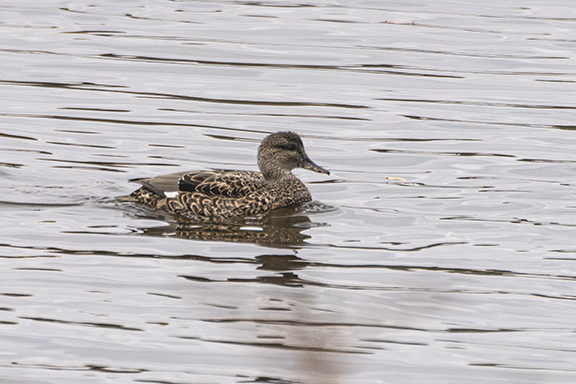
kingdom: Animalia
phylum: Chordata
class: Aves
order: Anseriformes
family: Anatidae
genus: Mareca
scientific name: Mareca strepera
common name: Gadwall
